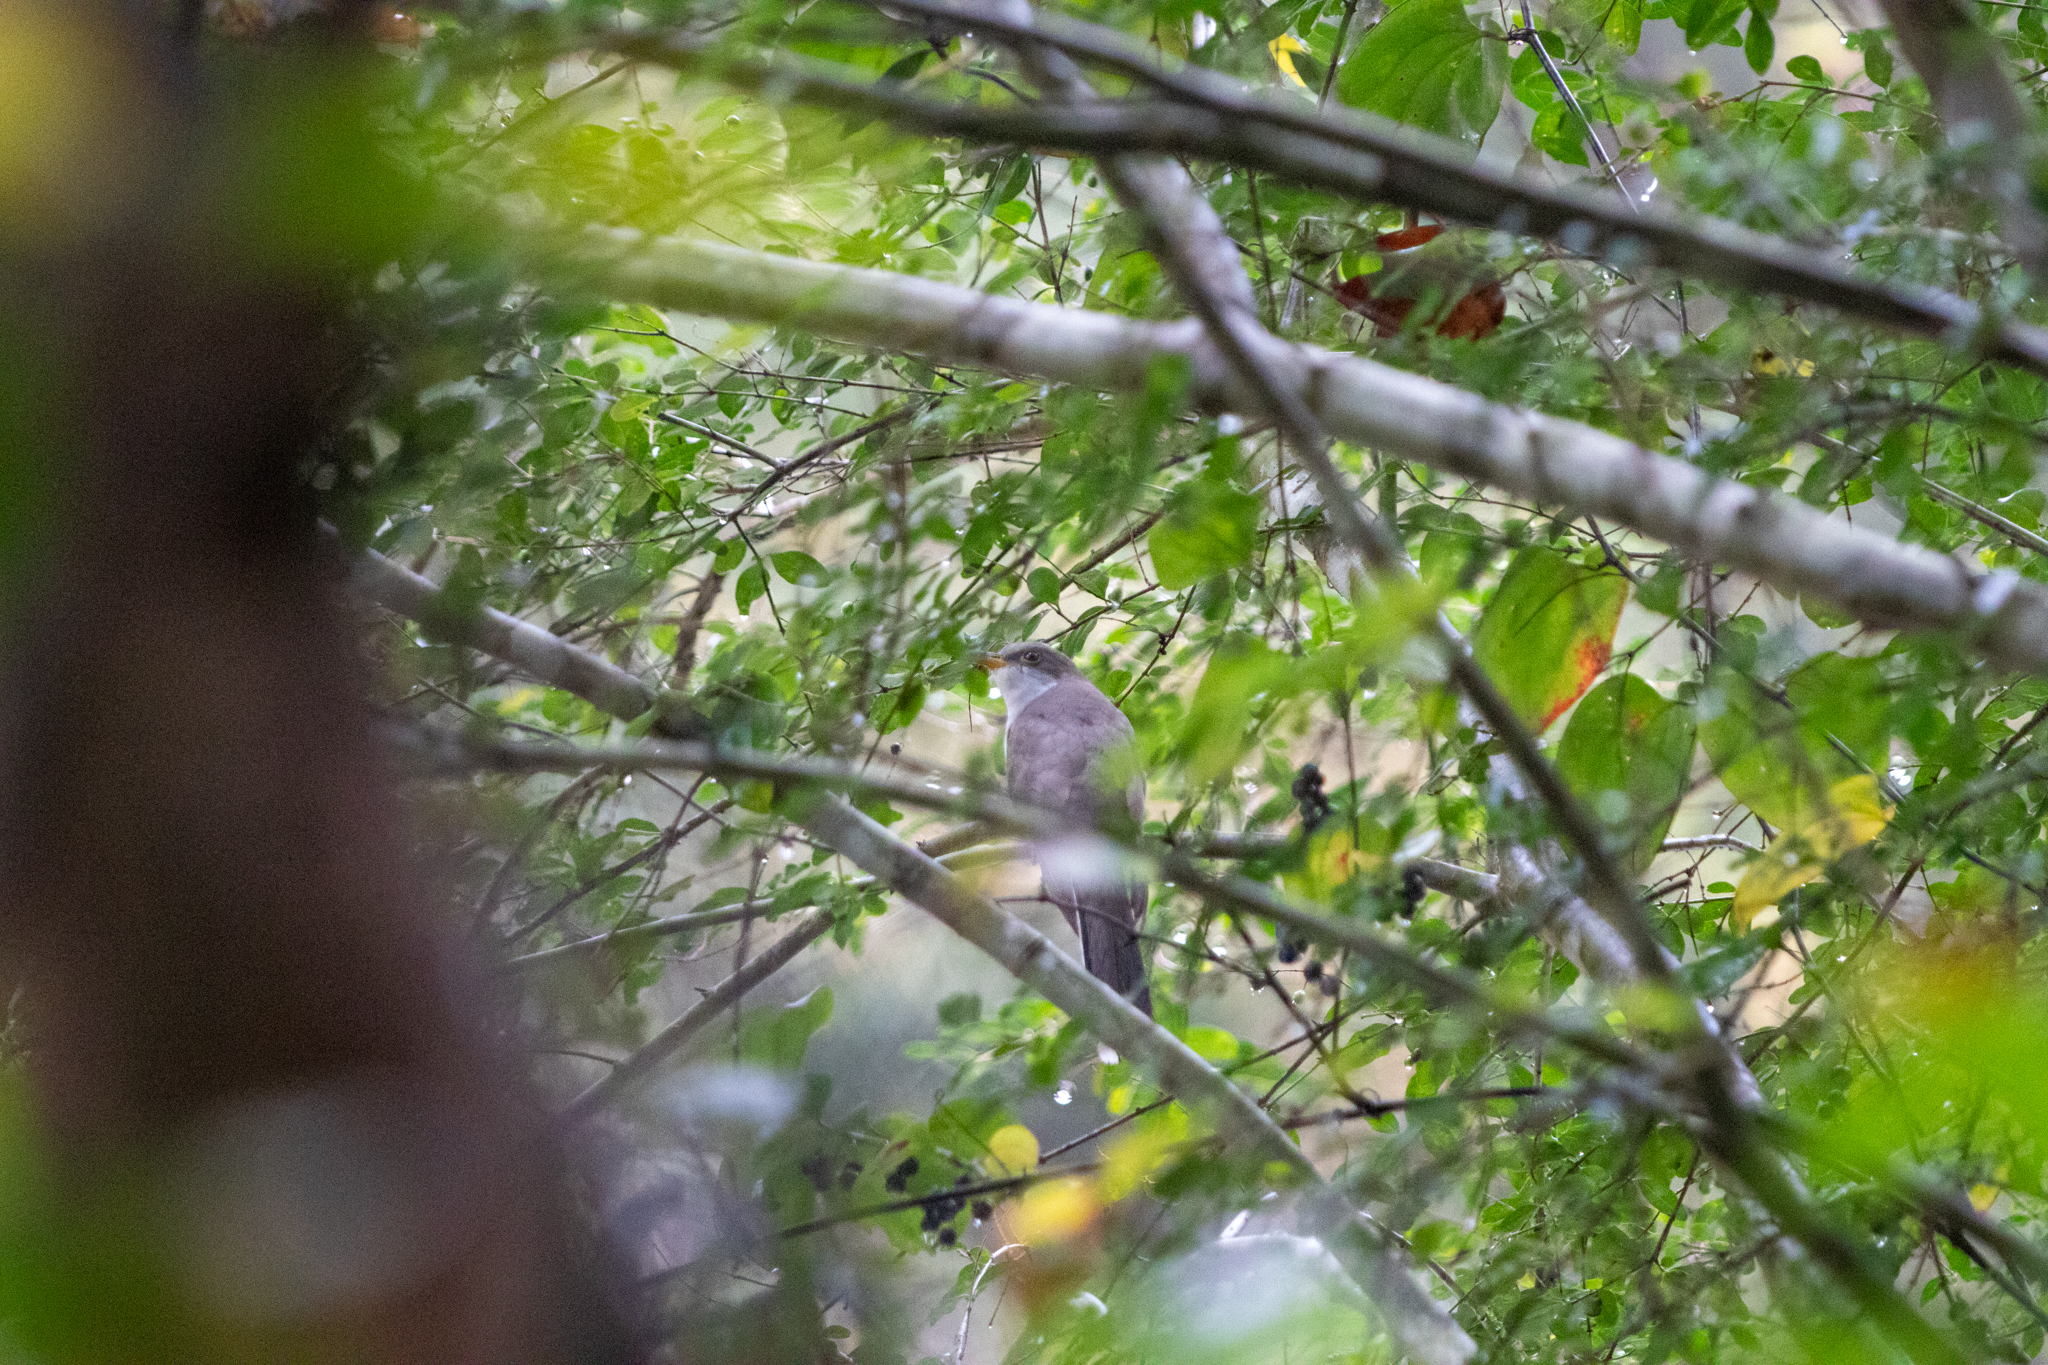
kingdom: Animalia
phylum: Chordata
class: Aves
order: Cuculiformes
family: Cuculidae
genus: Coccyzus
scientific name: Coccyzus americanus
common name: Yellow-billed cuckoo
